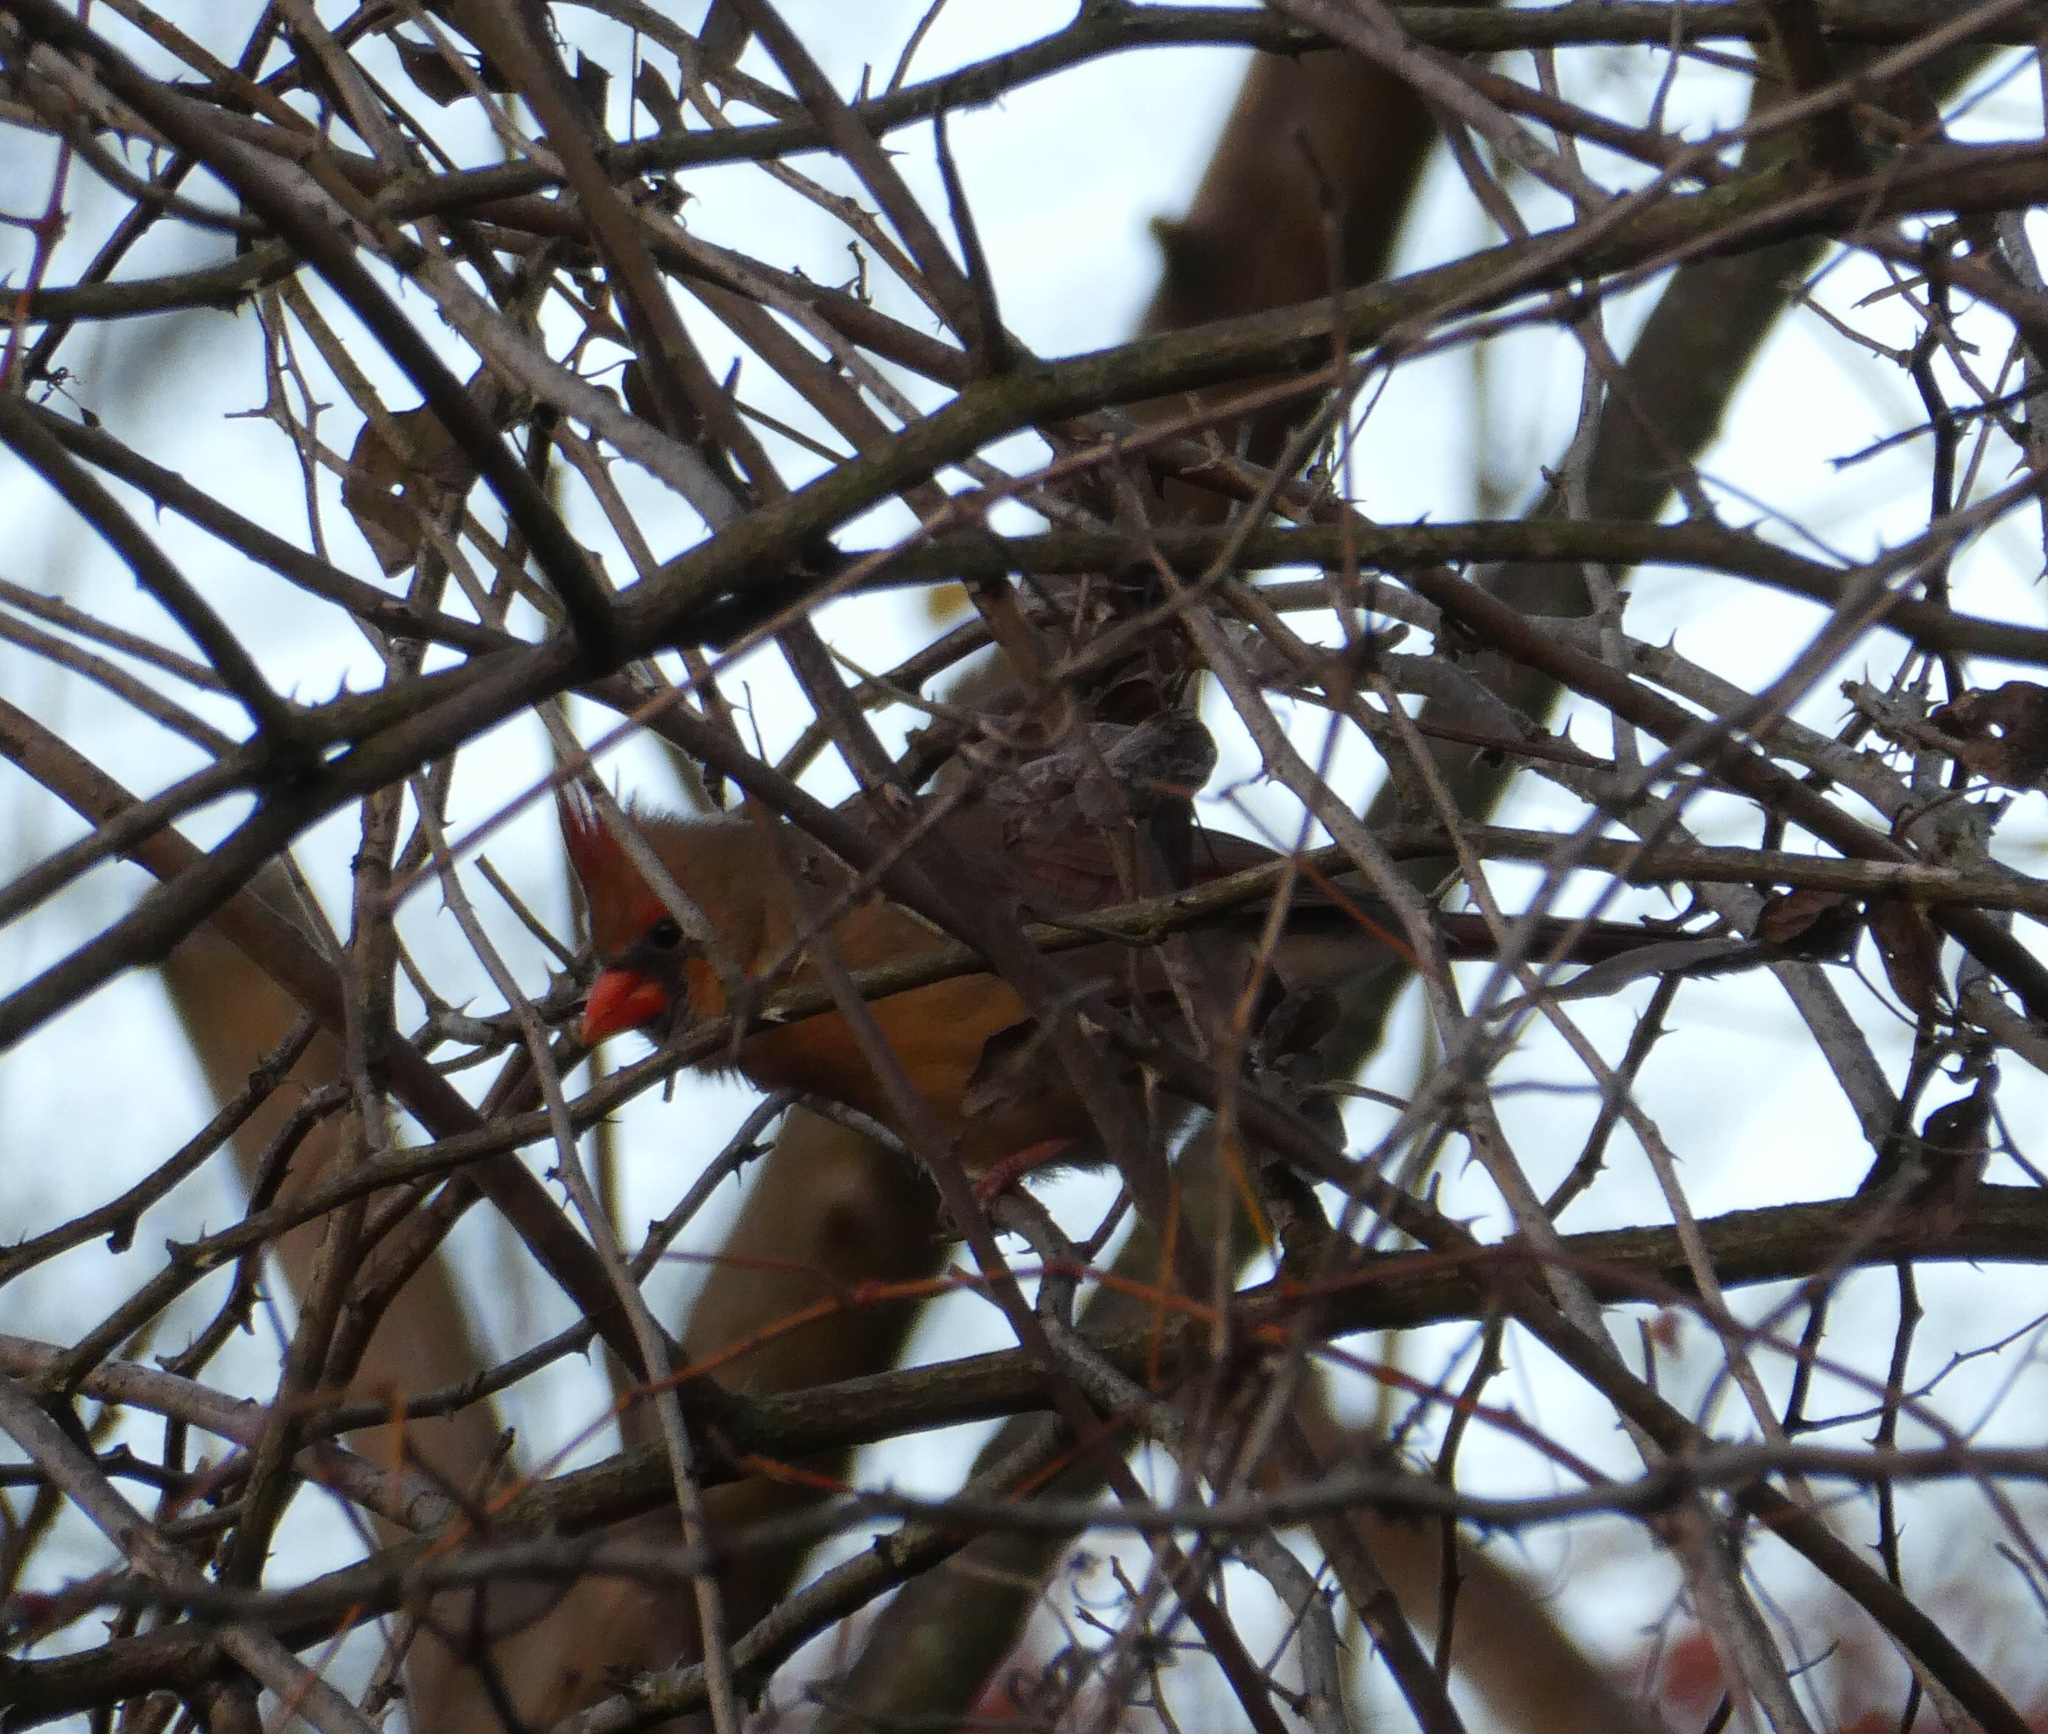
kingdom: Animalia
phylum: Chordata
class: Aves
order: Passeriformes
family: Cardinalidae
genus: Cardinalis
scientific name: Cardinalis cardinalis
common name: Northern cardinal
